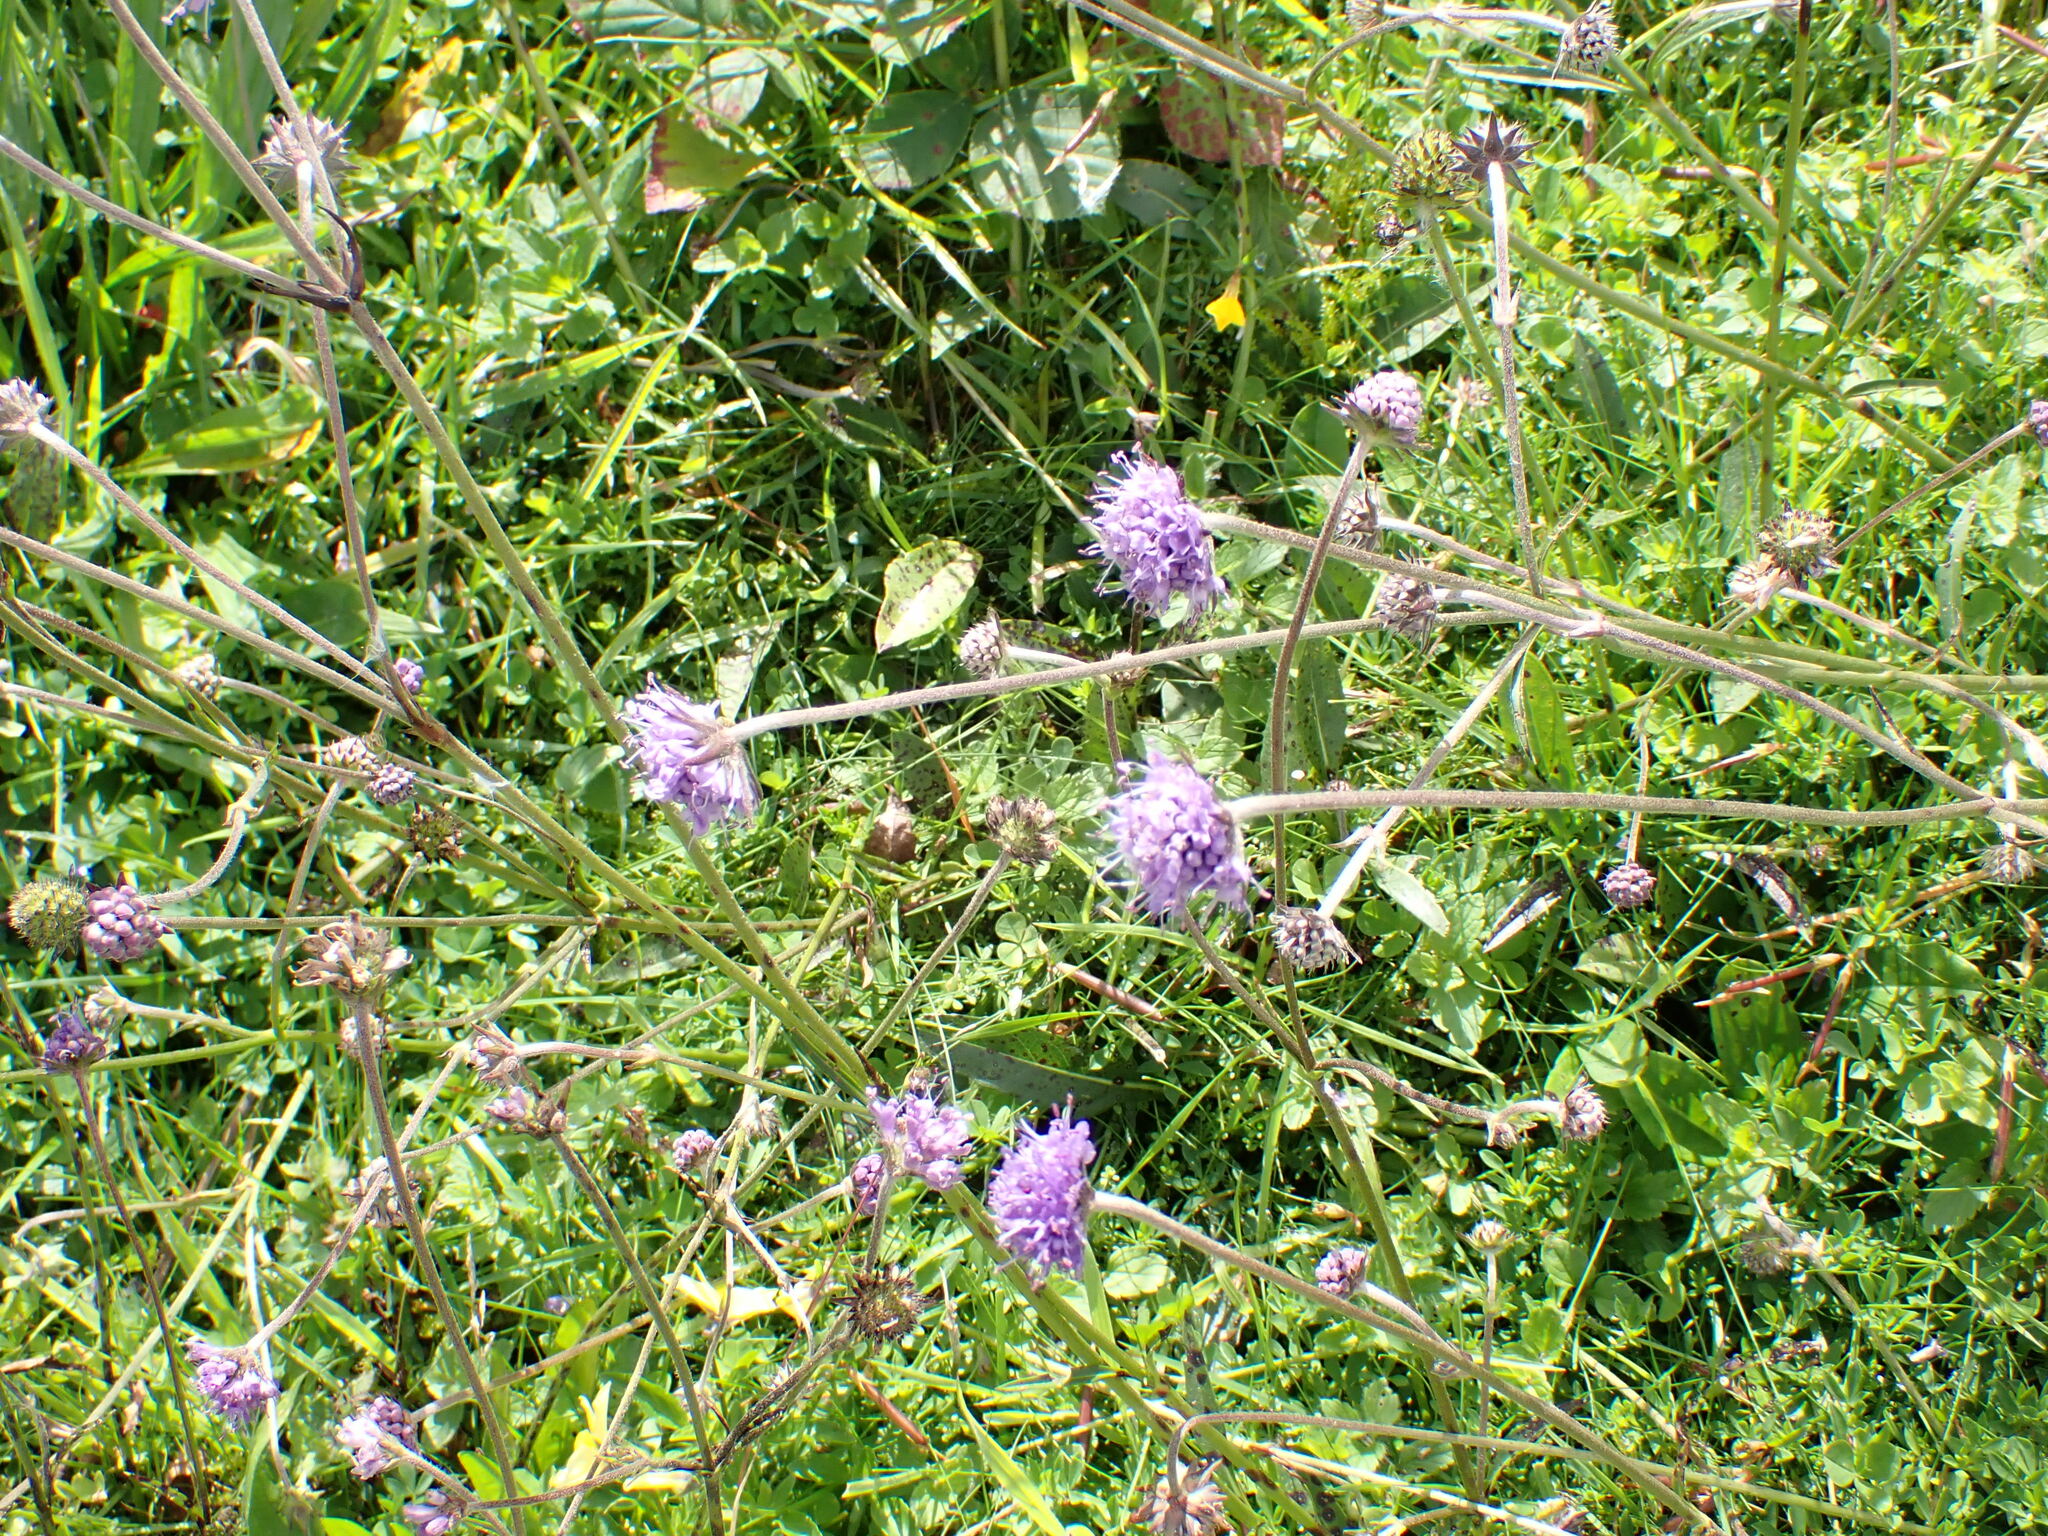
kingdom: Plantae
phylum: Tracheophyta
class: Magnoliopsida
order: Dipsacales
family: Caprifoliaceae
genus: Succisa
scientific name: Succisa pratensis
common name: Devil's-bit
